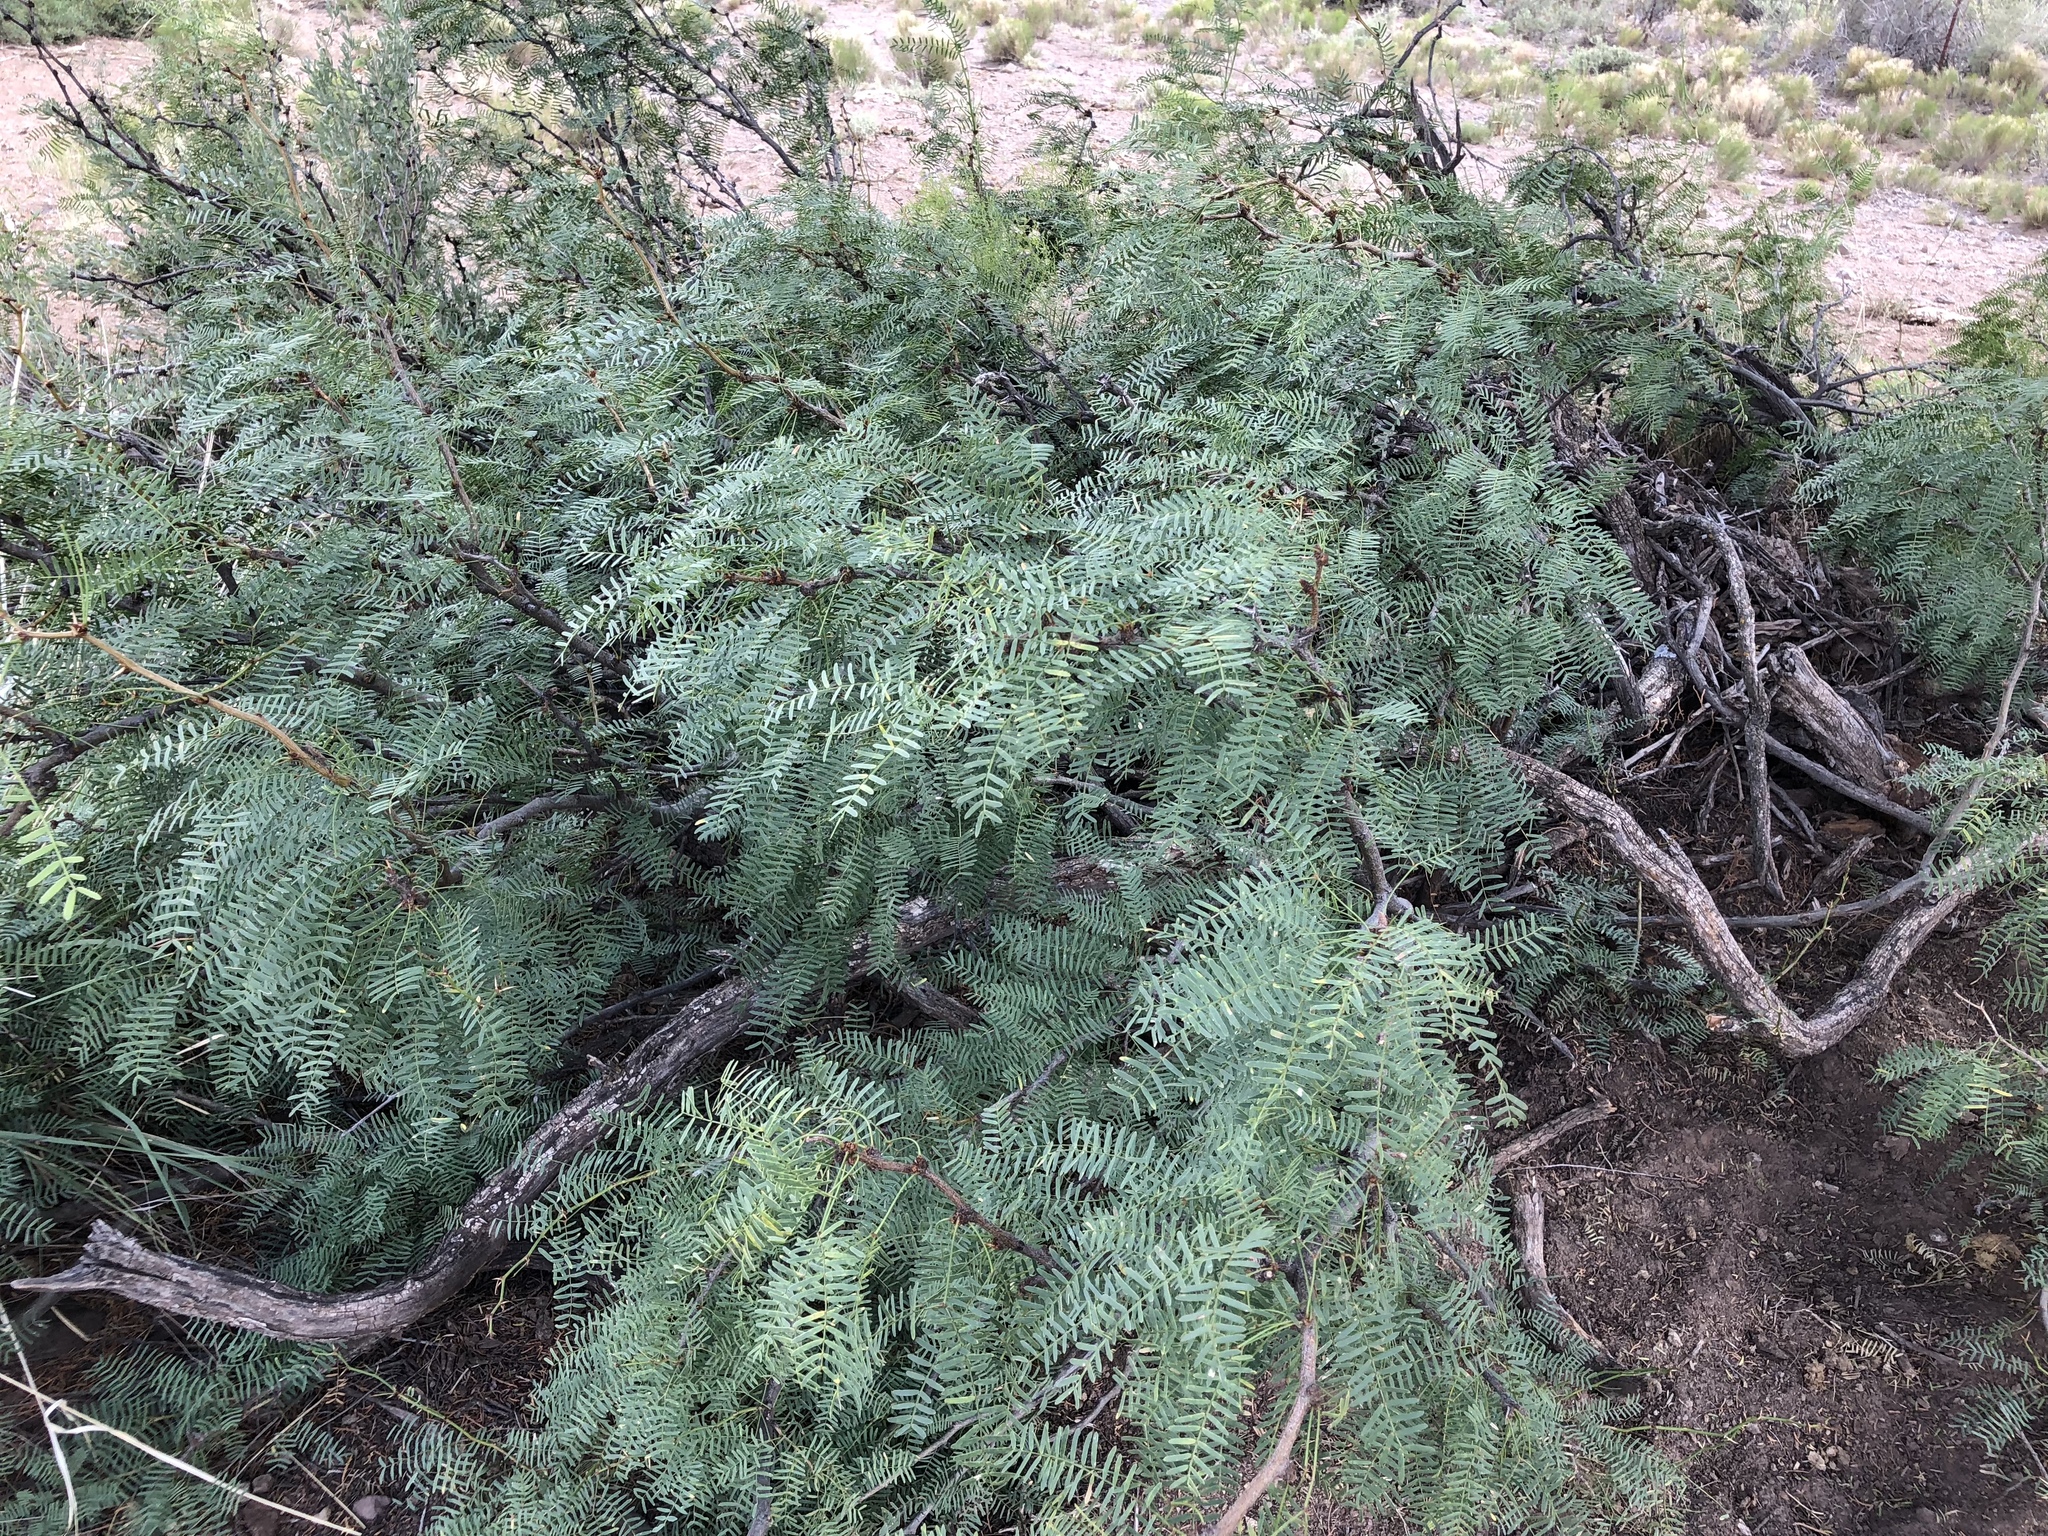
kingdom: Plantae
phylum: Tracheophyta
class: Magnoliopsida
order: Fabales
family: Fabaceae
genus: Prosopis
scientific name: Prosopis glandulosa
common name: Honey mesquite
